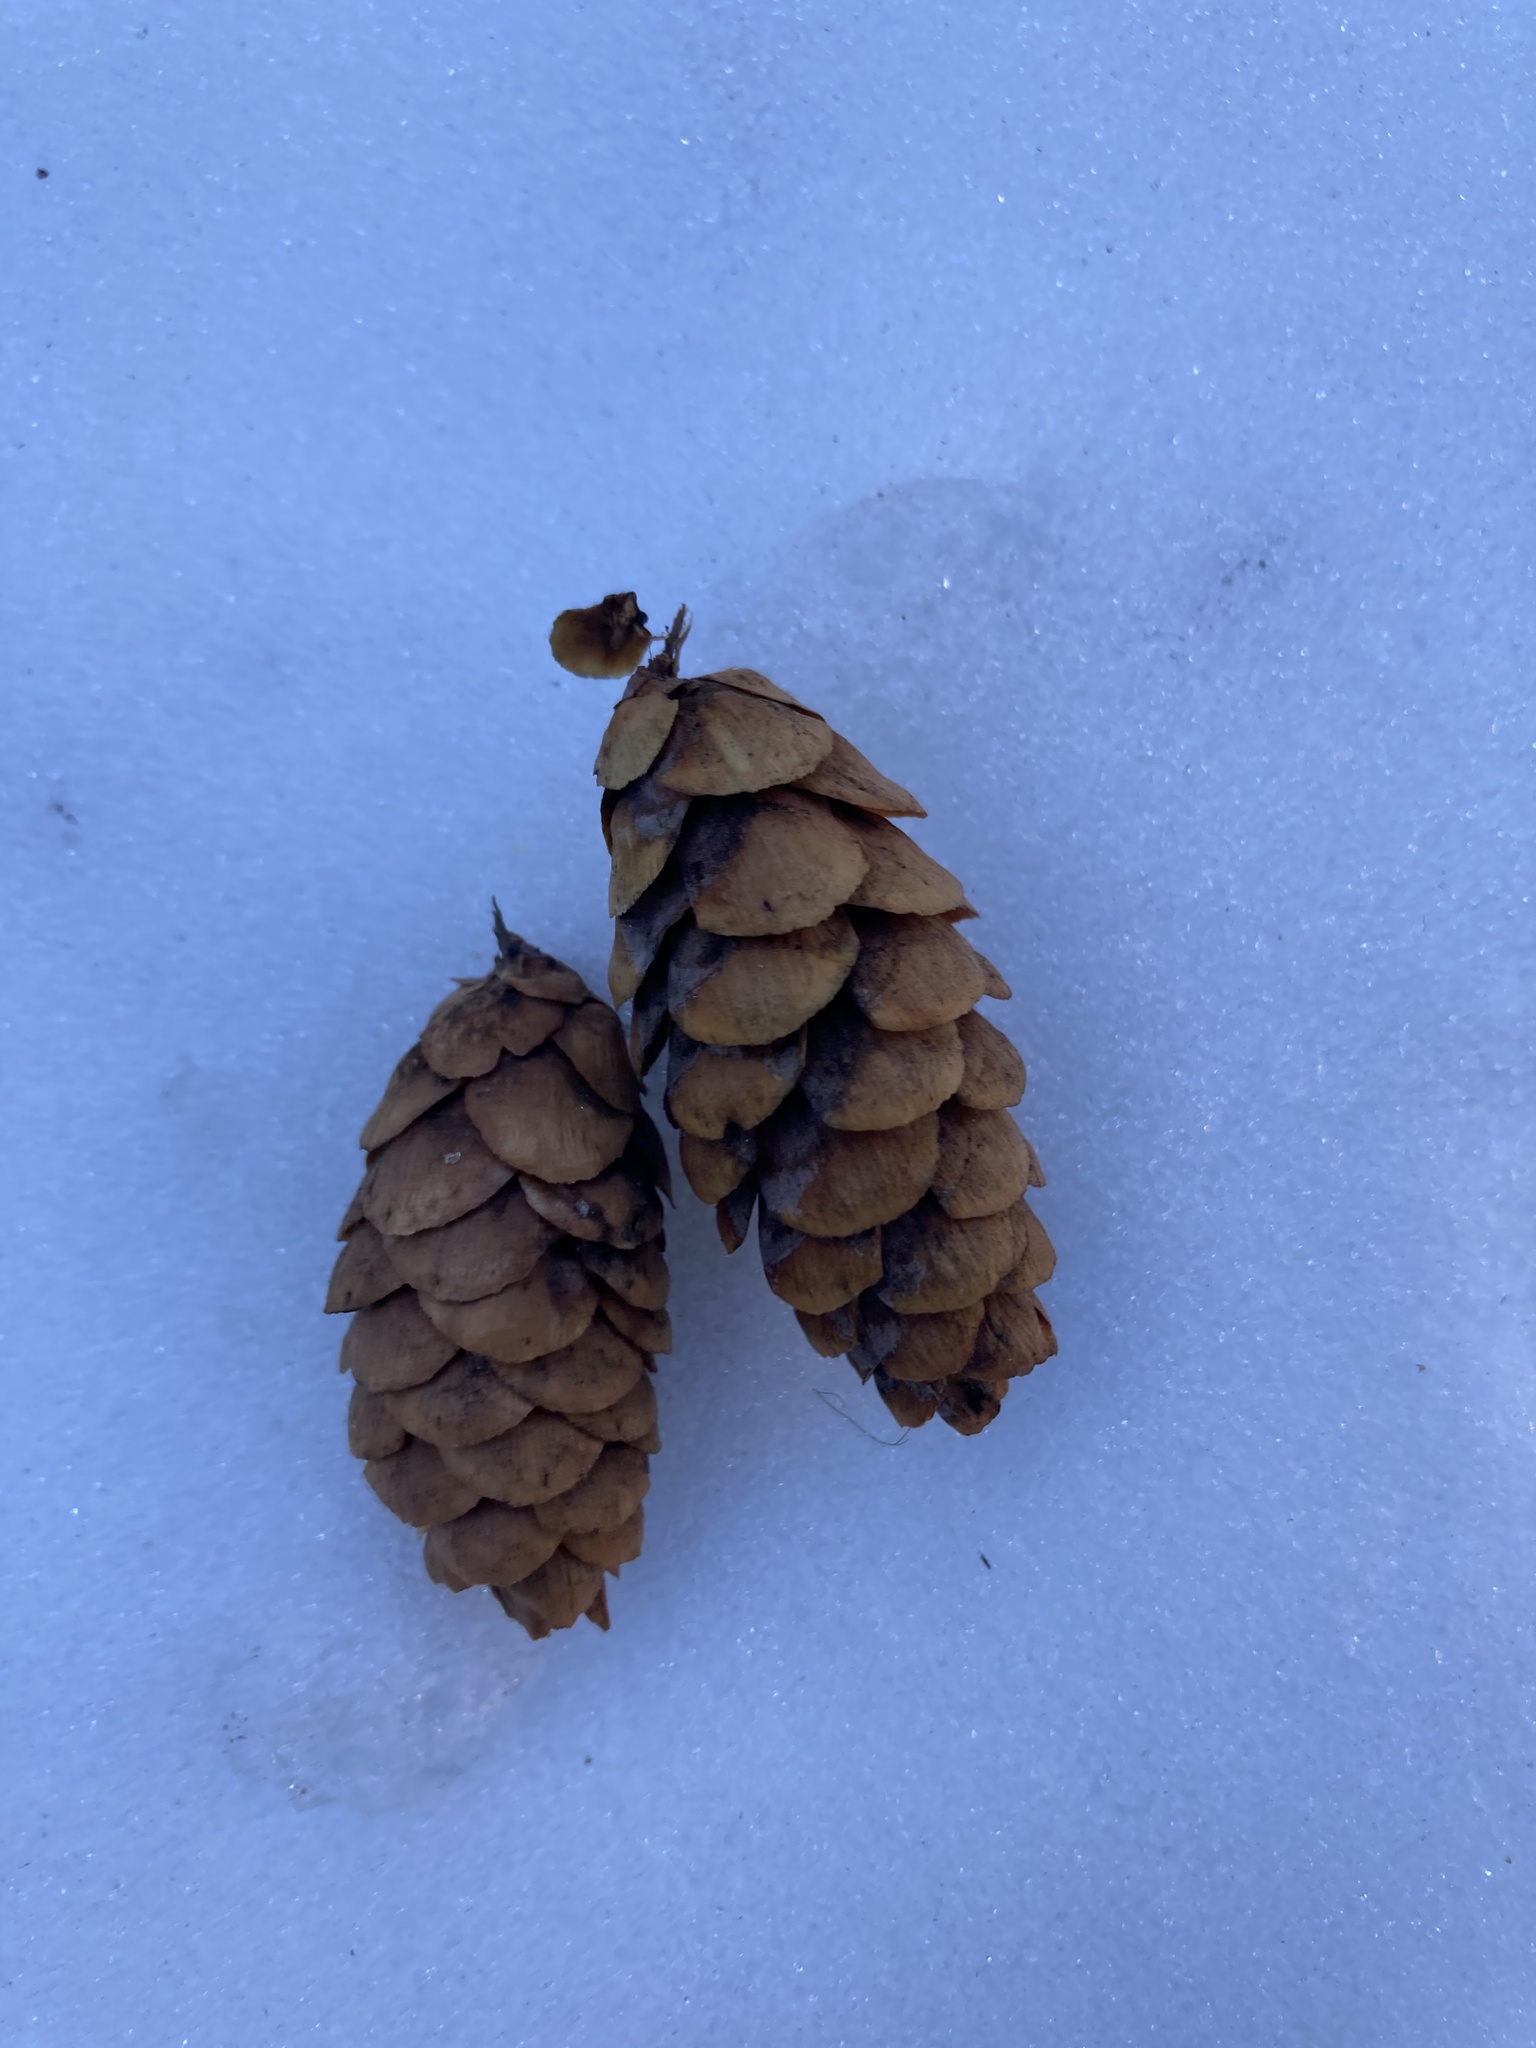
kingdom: Plantae
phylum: Tracheophyta
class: Pinopsida
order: Pinales
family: Pinaceae
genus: Picea
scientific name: Picea glauca
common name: White spruce
